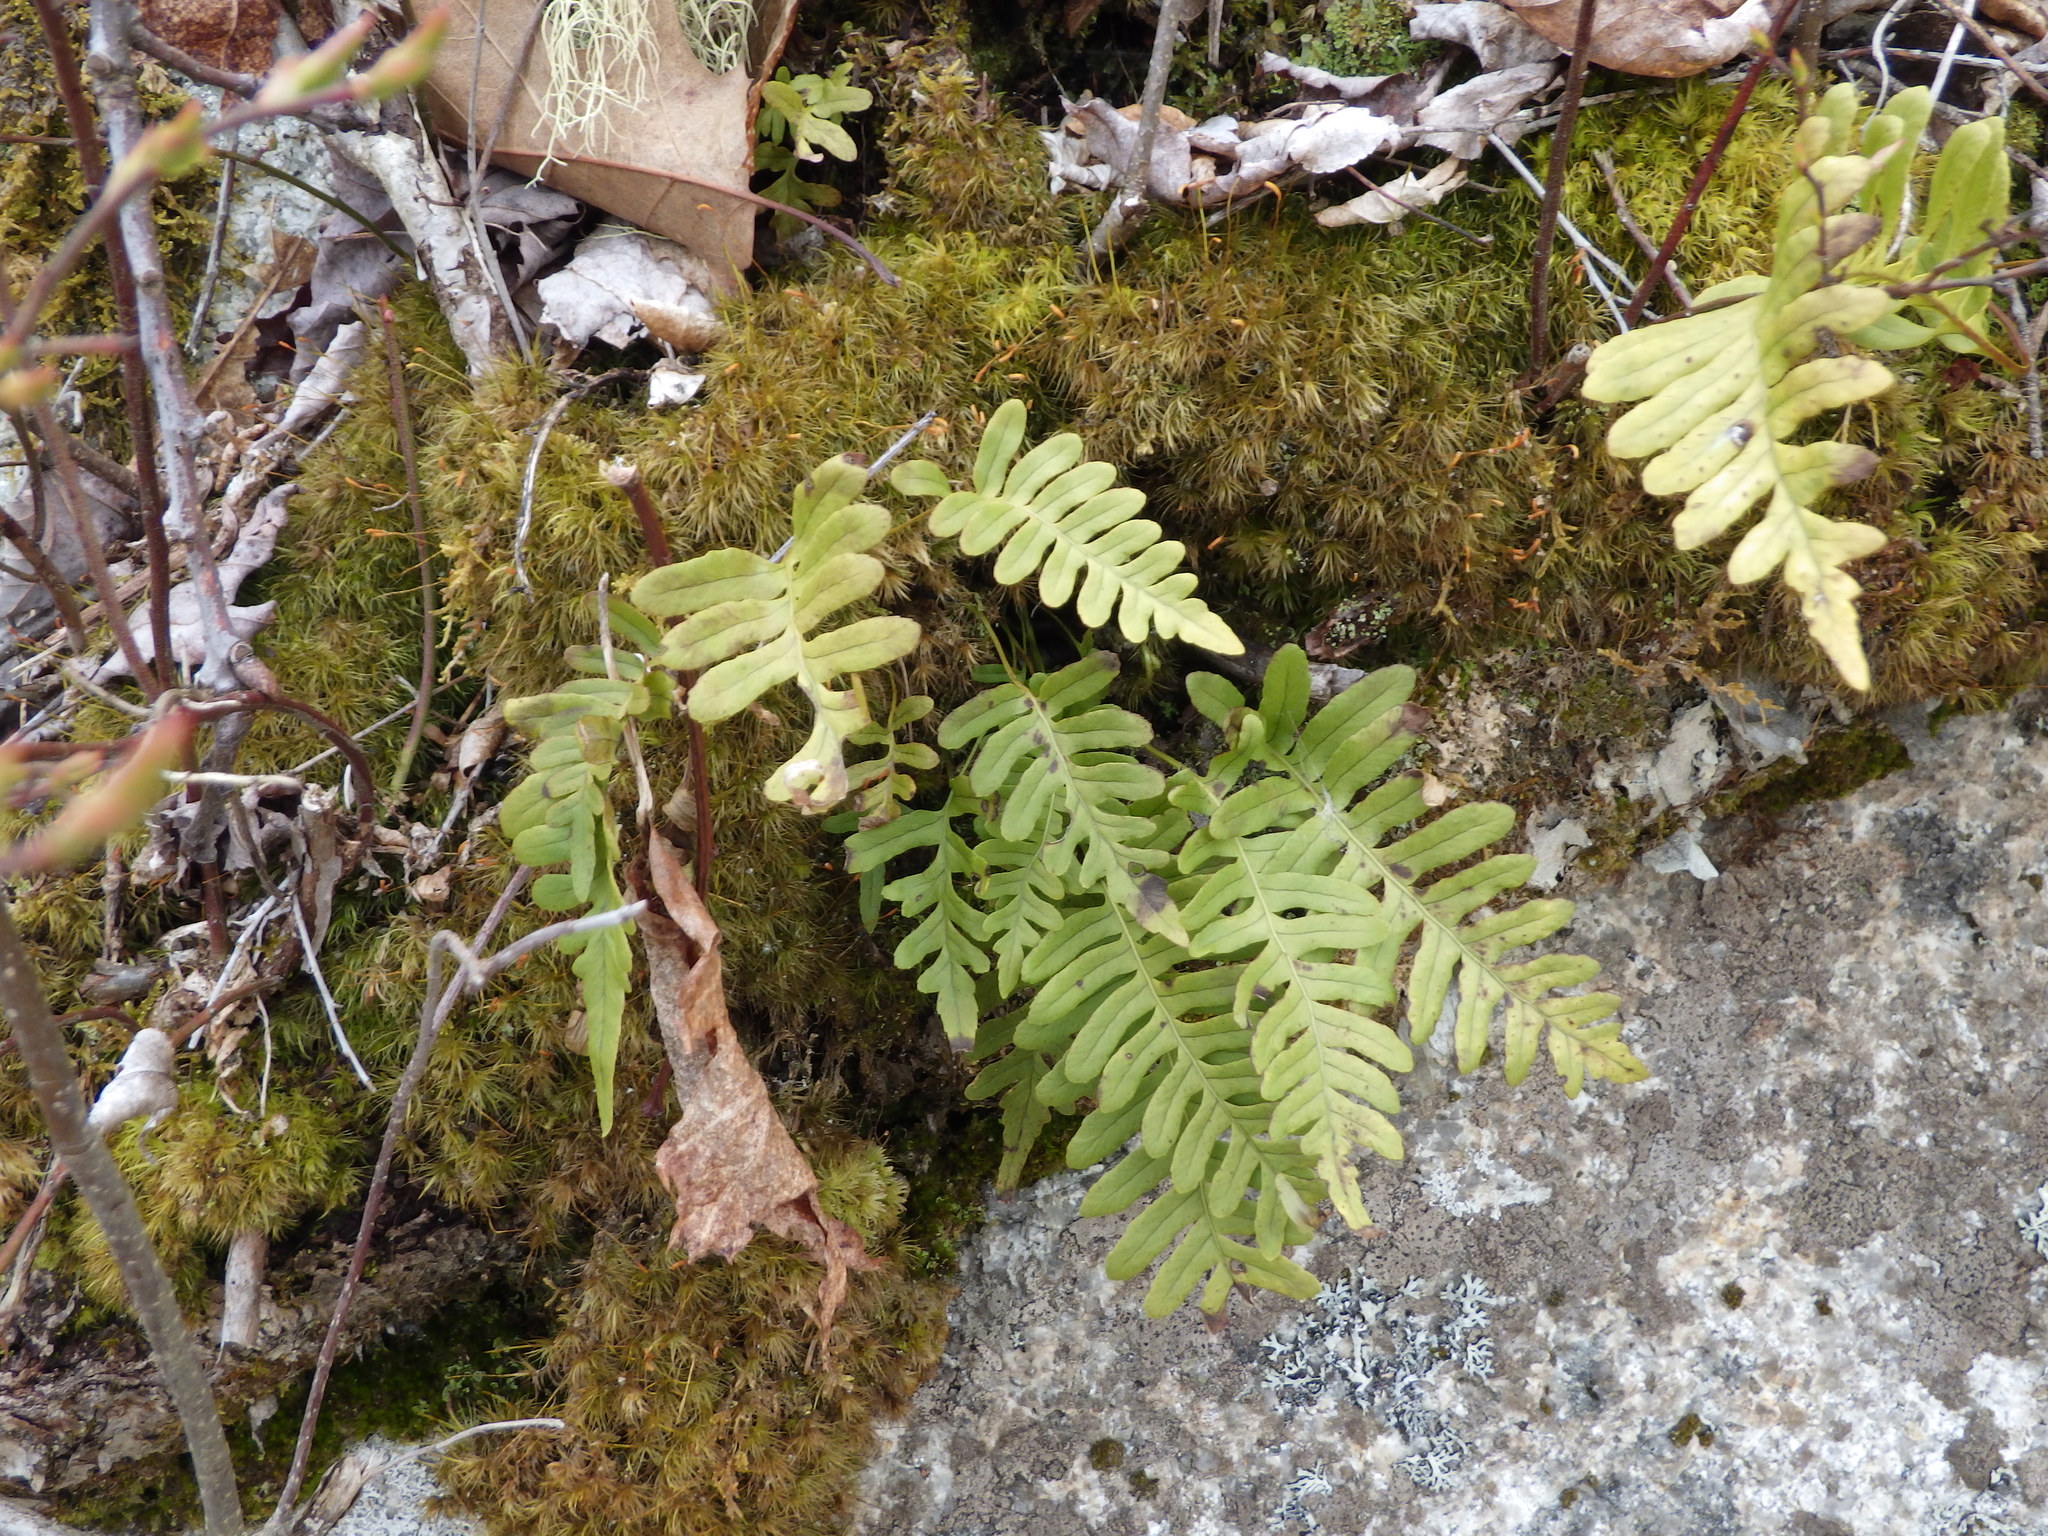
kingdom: Plantae
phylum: Tracheophyta
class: Polypodiopsida
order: Polypodiales
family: Polypodiaceae
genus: Polypodium
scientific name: Polypodium virginianum
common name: American wall fern
